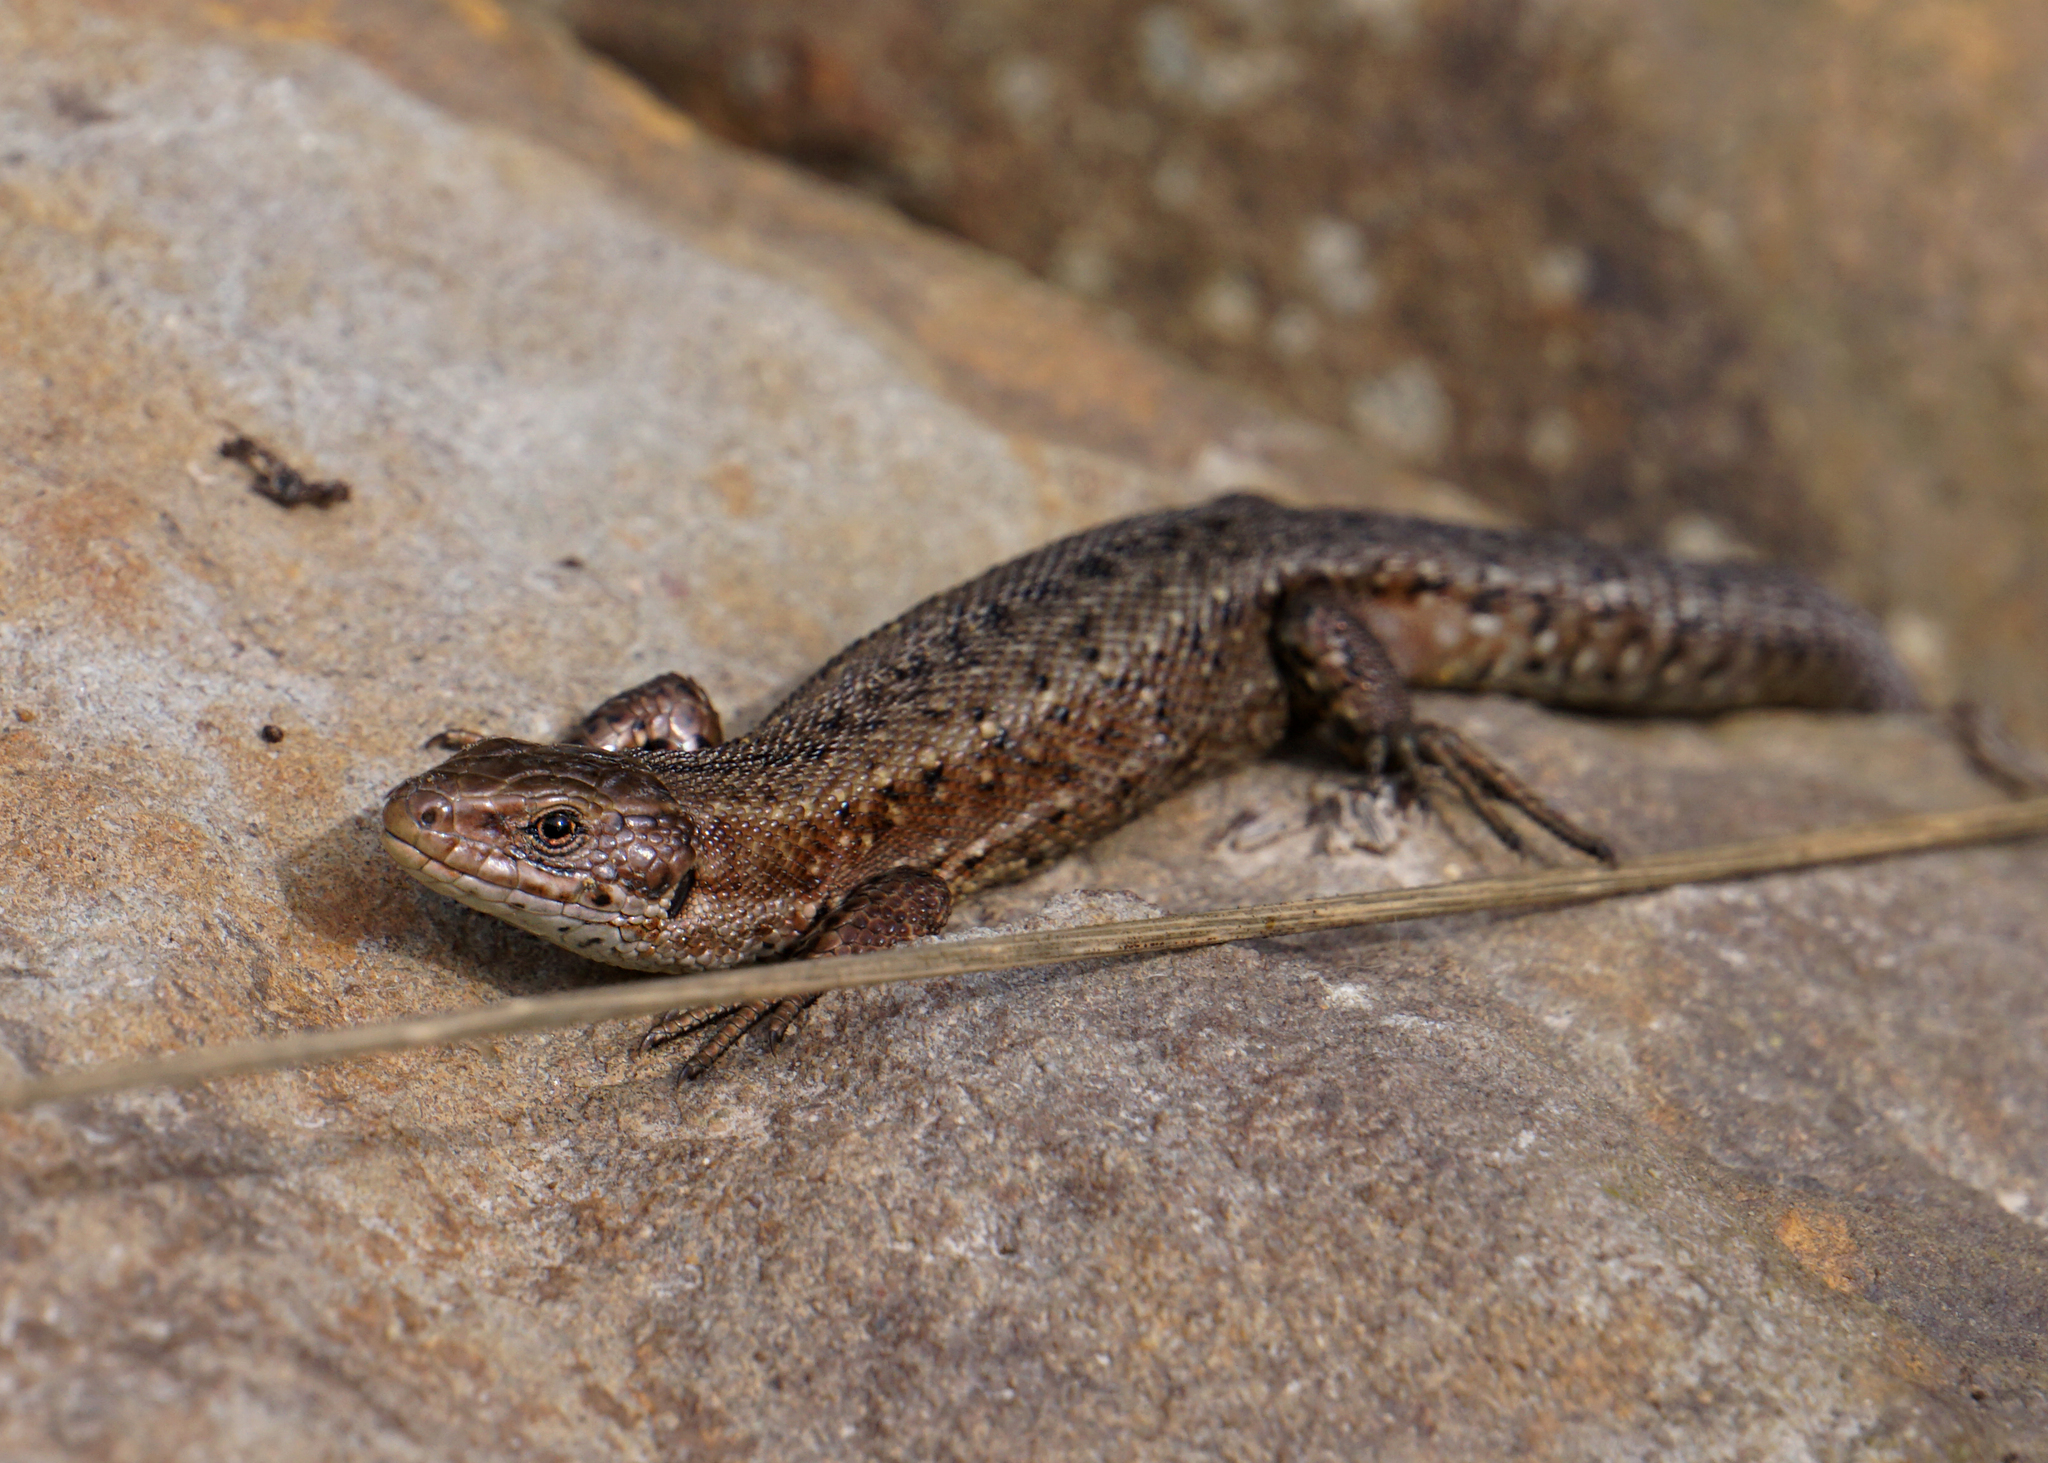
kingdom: Animalia
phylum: Chordata
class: Squamata
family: Lacertidae
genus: Zootoca
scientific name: Zootoca vivipara
